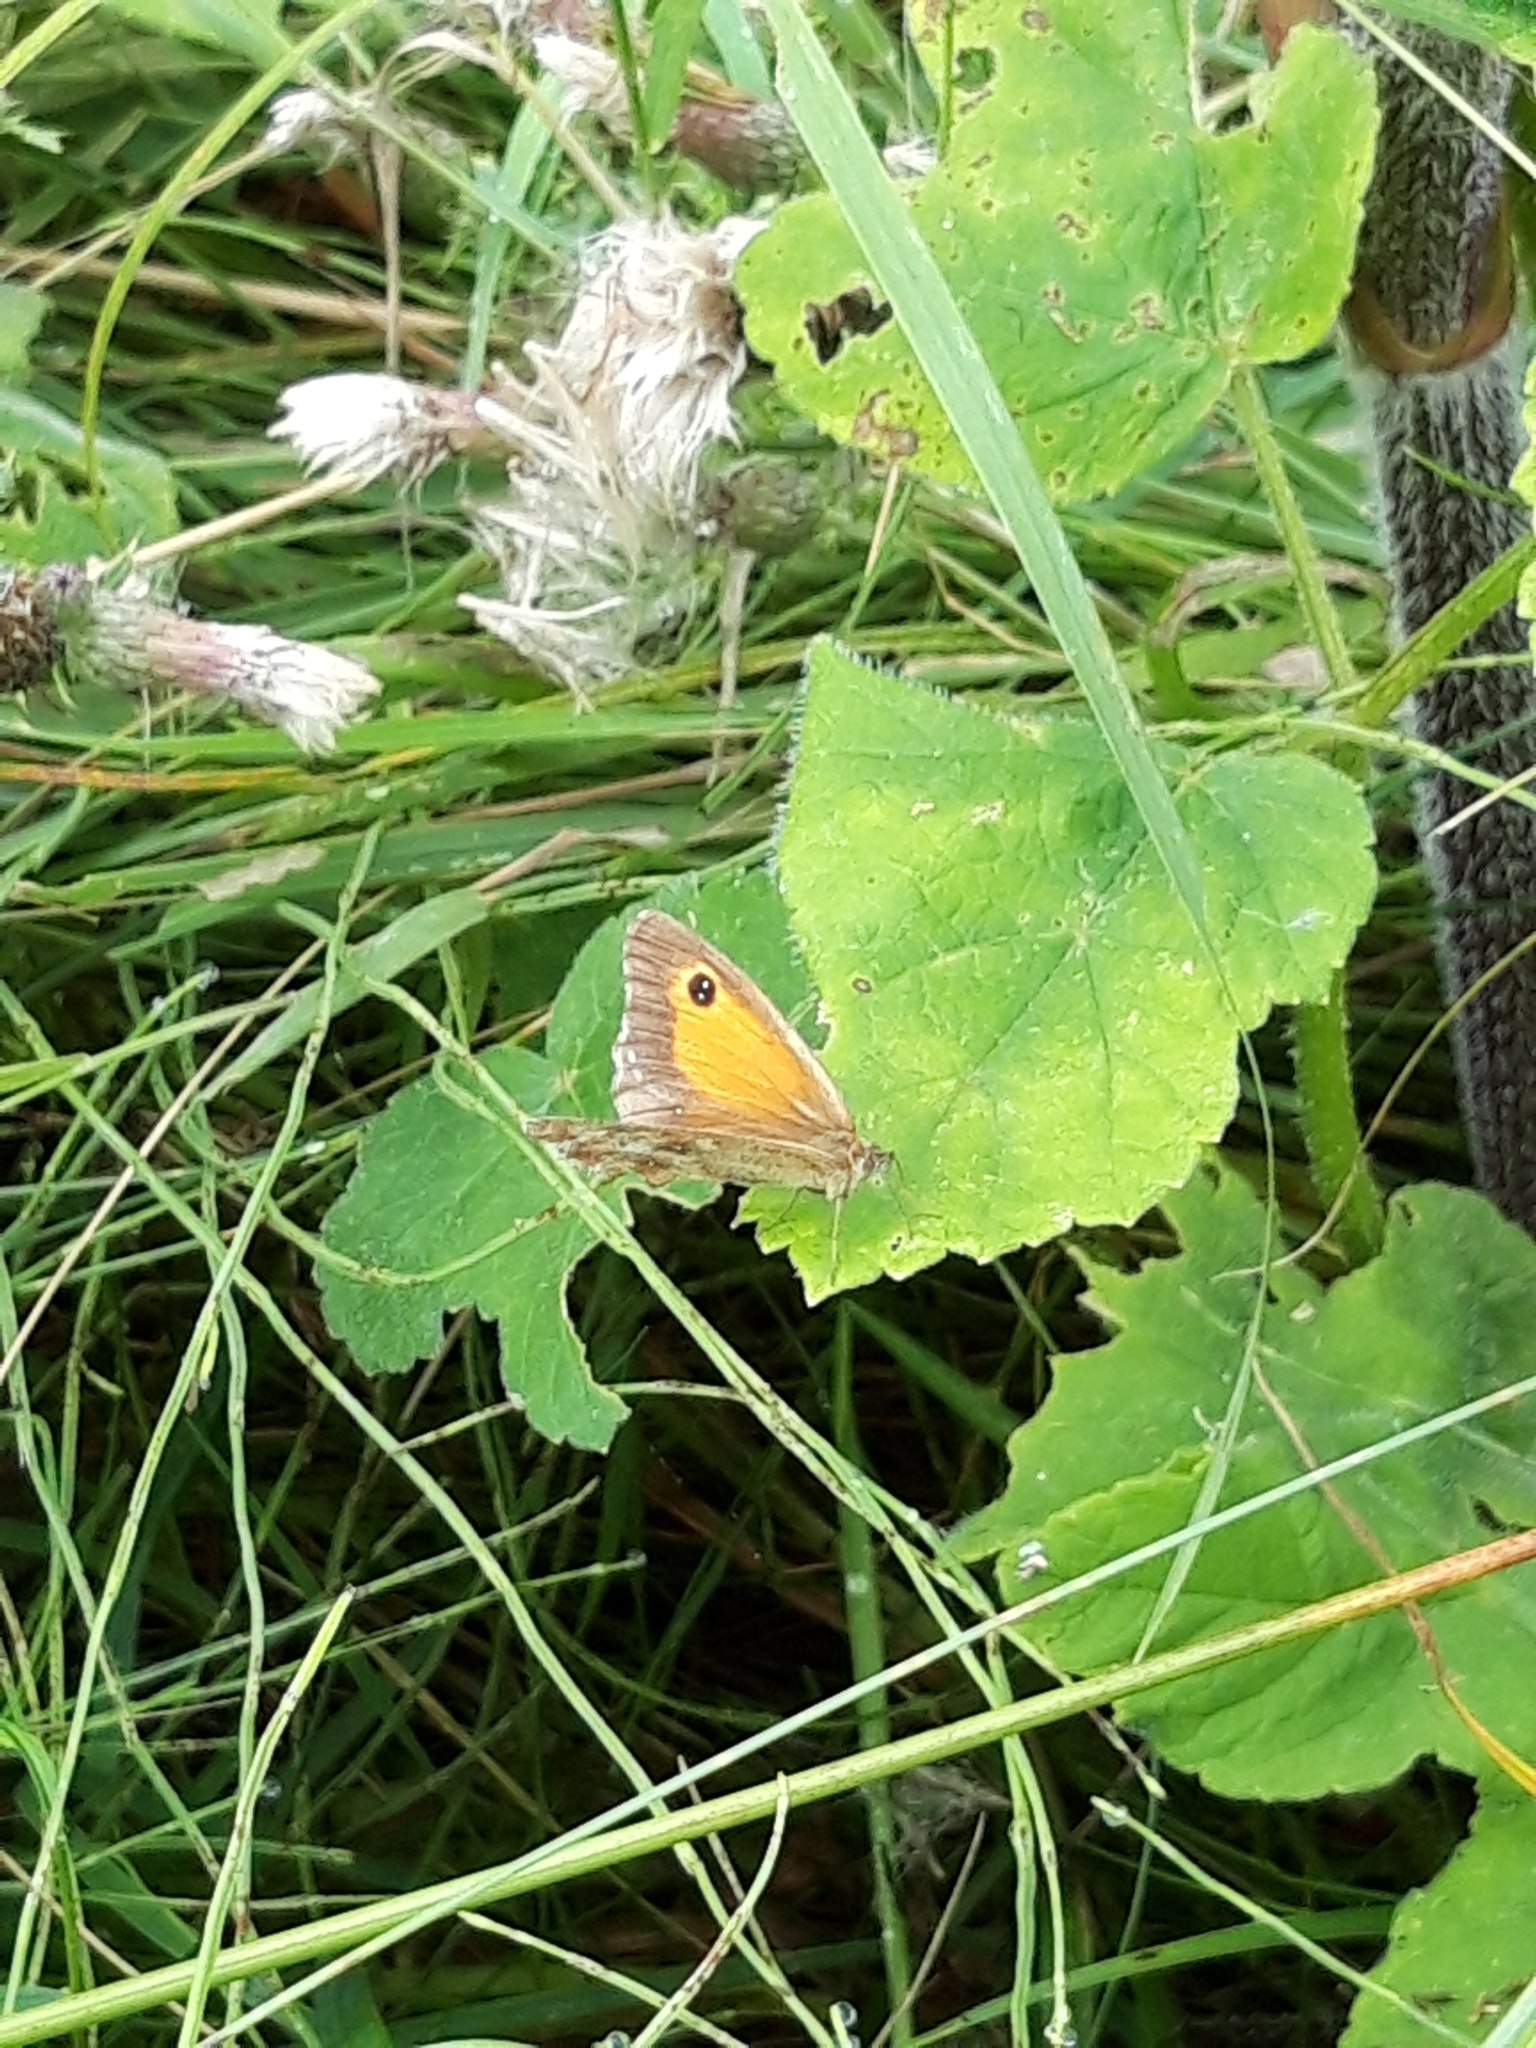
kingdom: Animalia
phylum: Arthropoda
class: Insecta
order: Lepidoptera
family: Nymphalidae
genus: Pyronia
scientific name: Pyronia tithonus
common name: Gatekeeper
